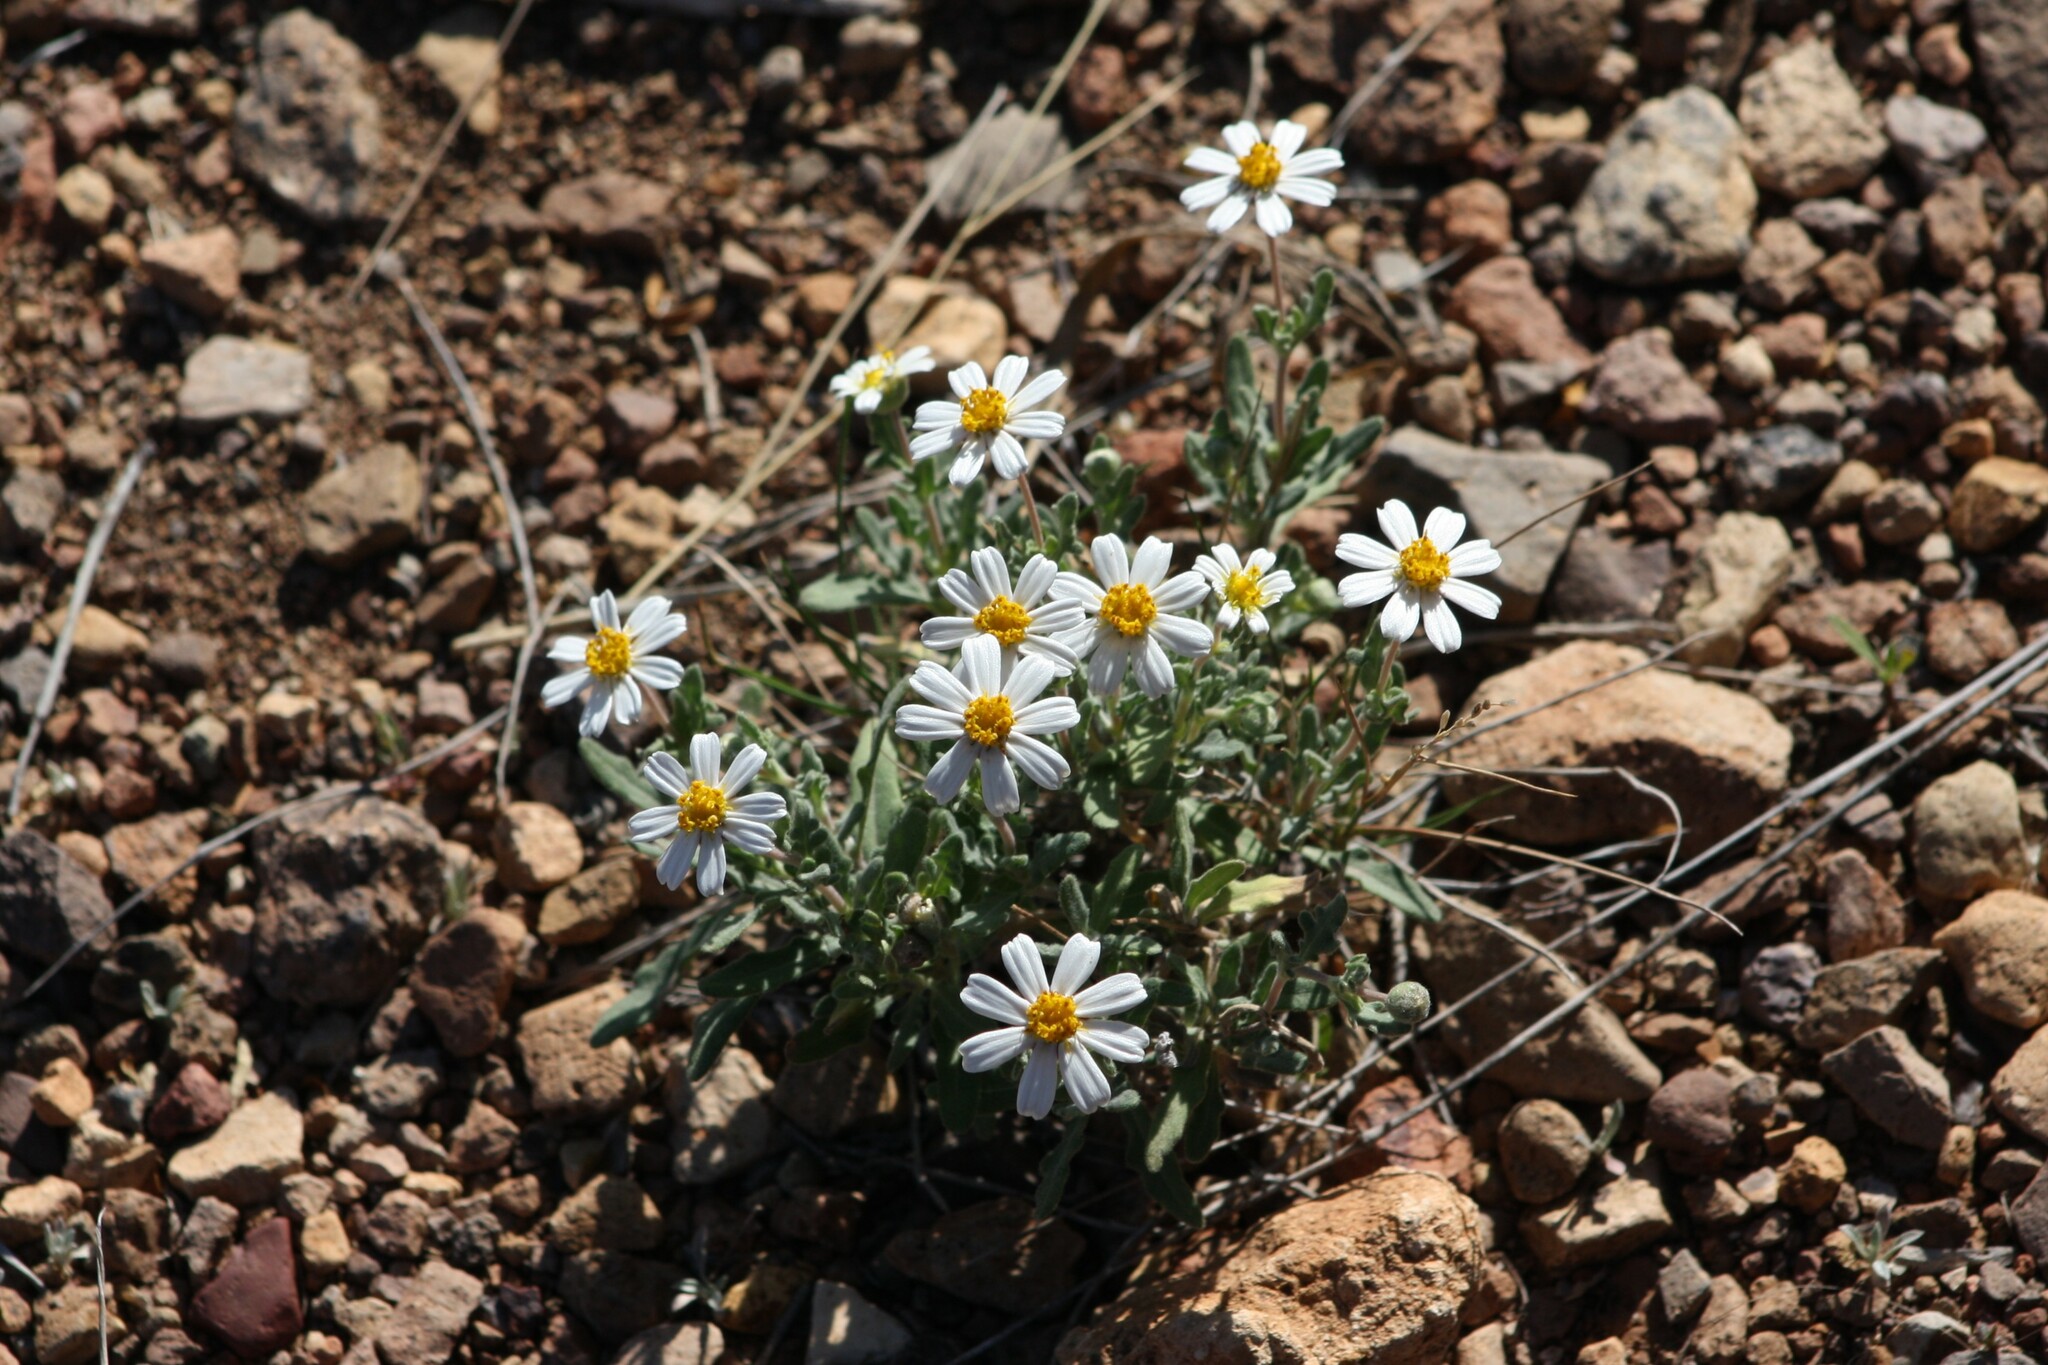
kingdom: Plantae
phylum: Tracheophyta
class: Magnoliopsida
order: Asterales
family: Asteraceae
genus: Melampodium
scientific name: Melampodium leucanthum
